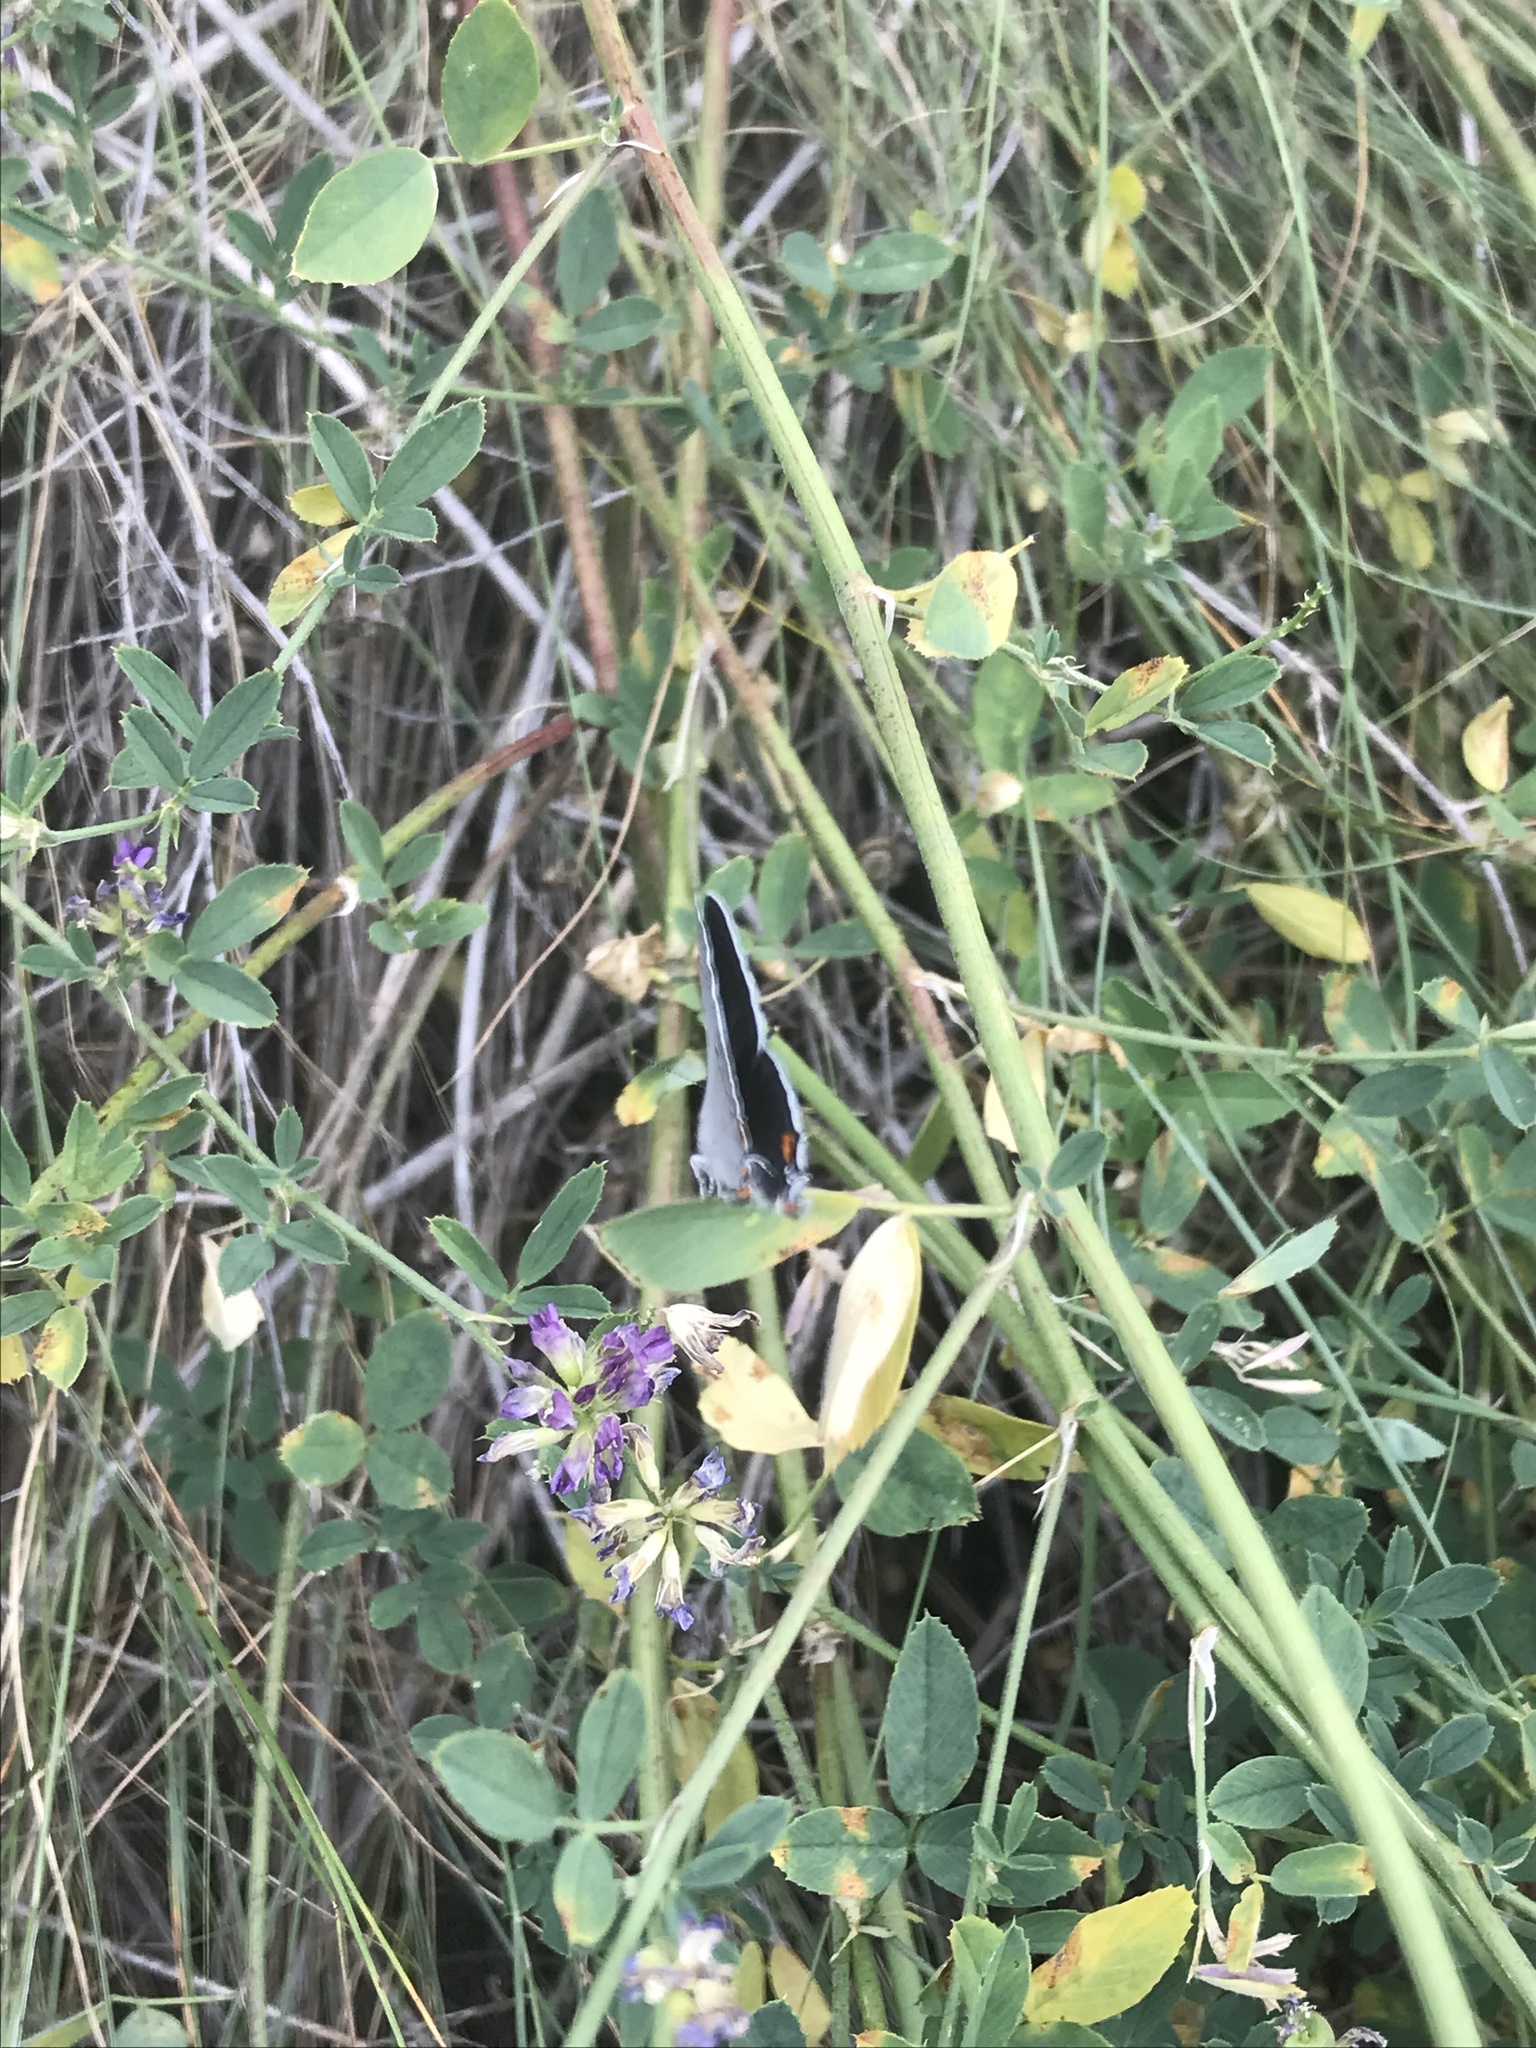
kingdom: Animalia
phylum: Arthropoda
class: Insecta
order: Lepidoptera
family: Lycaenidae
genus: Strymon
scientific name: Strymon melinus
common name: Gray hairstreak
